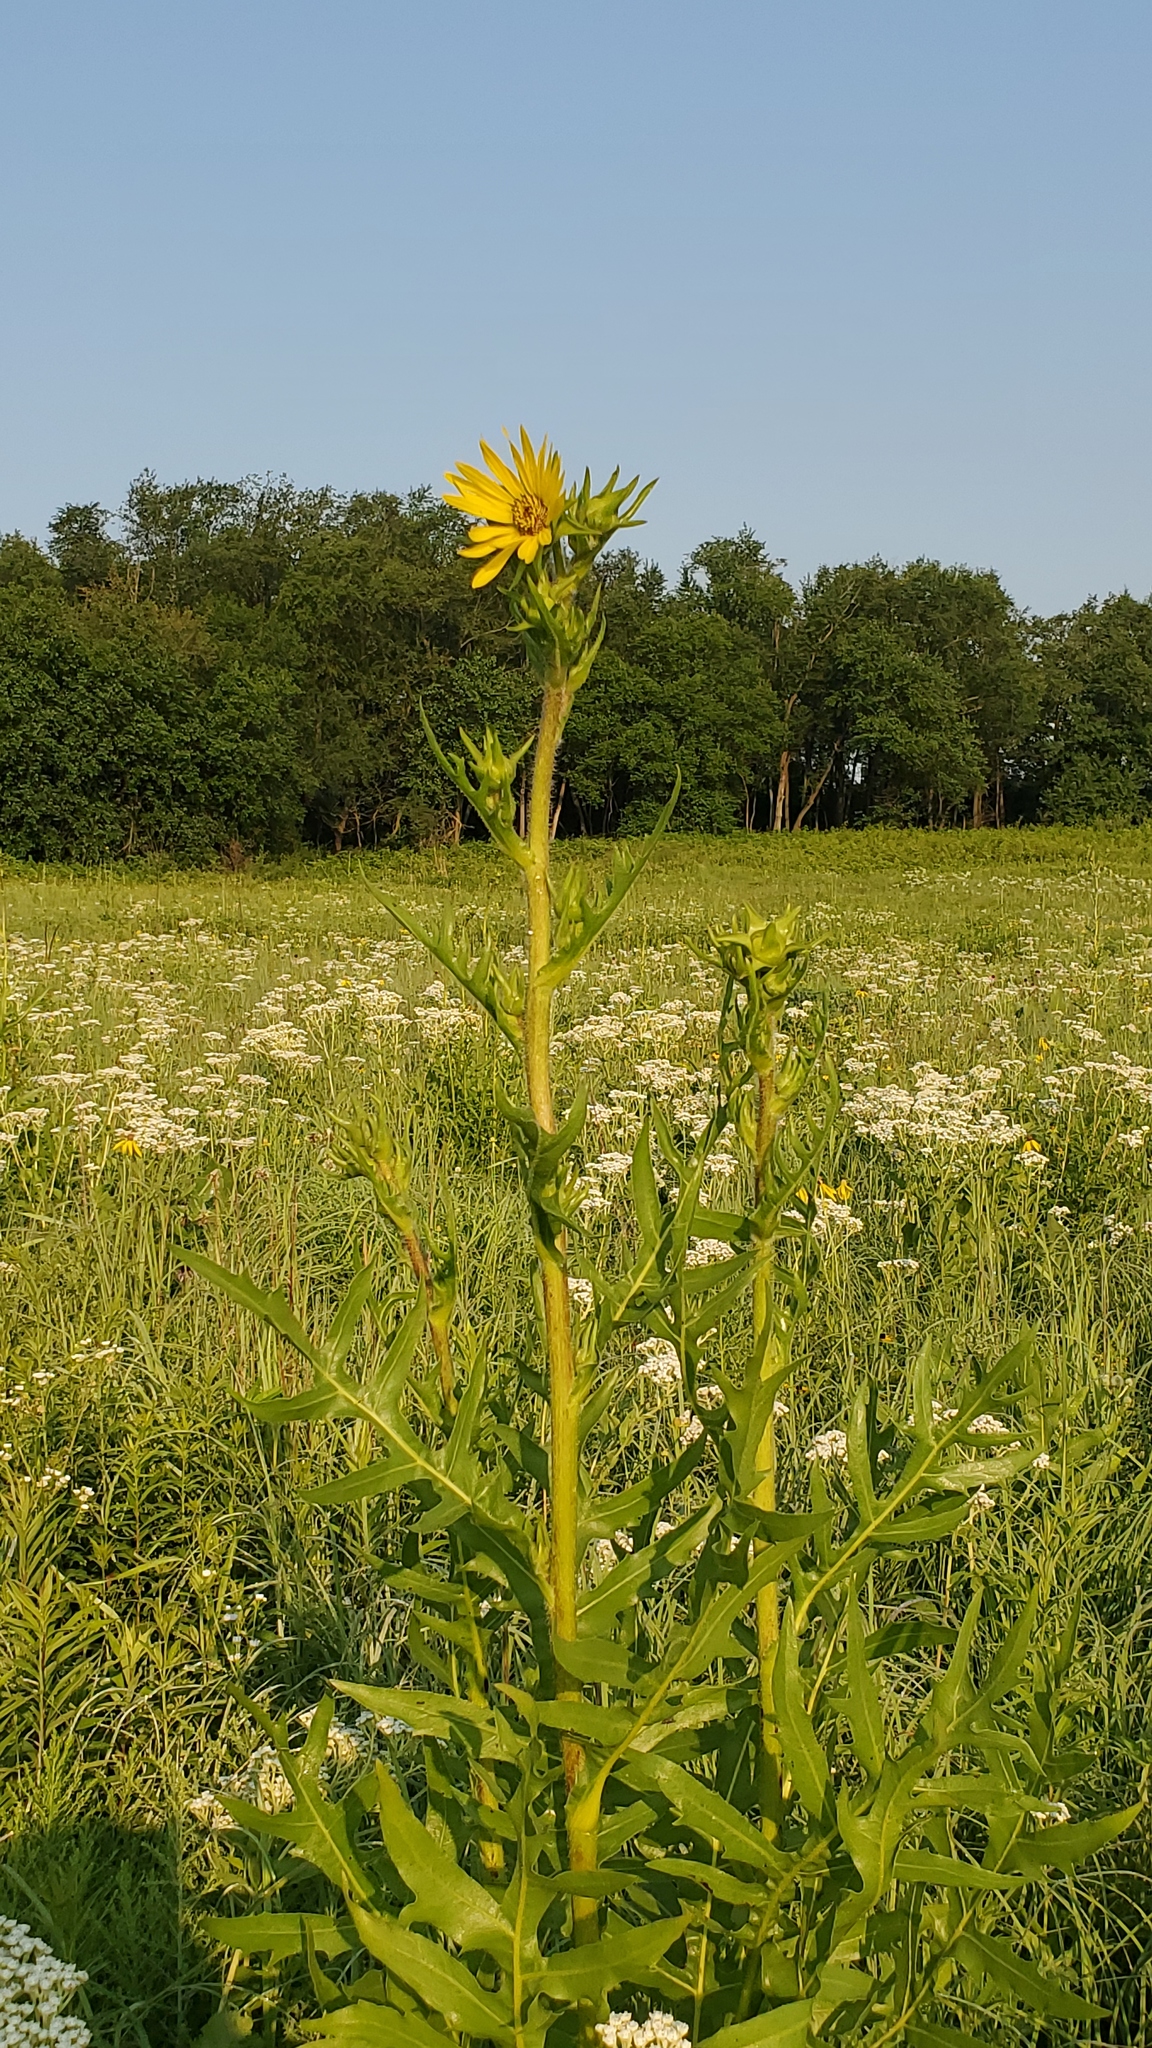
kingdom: Plantae
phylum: Tracheophyta
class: Magnoliopsida
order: Asterales
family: Asteraceae
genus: Silphium
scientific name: Silphium laciniatum
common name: Polarplant
